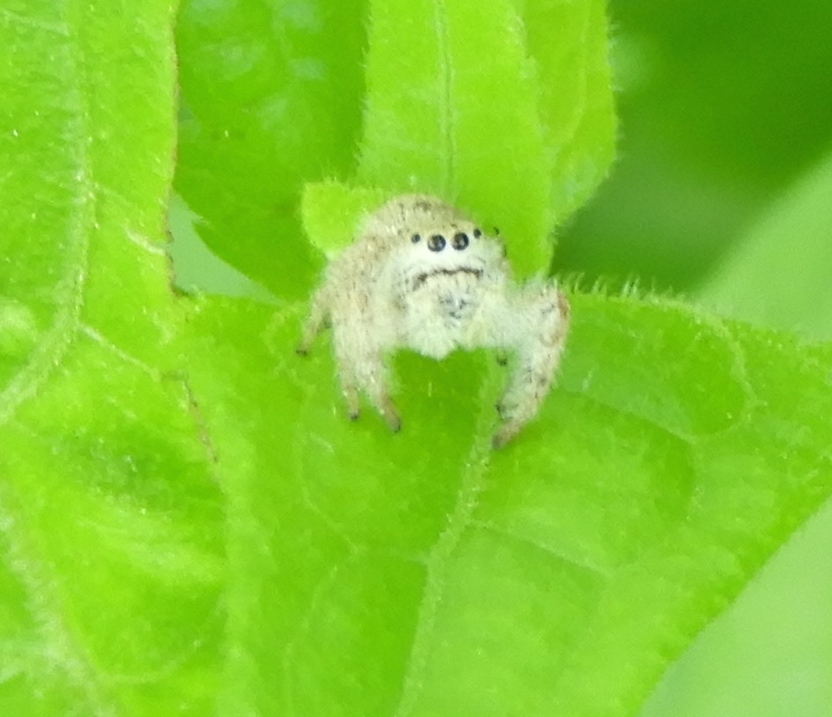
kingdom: Animalia
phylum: Arthropoda
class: Arachnida
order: Araneae
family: Salticidae
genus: Paraphidippus
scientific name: Paraphidippus fartilis
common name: Jumping spiders
